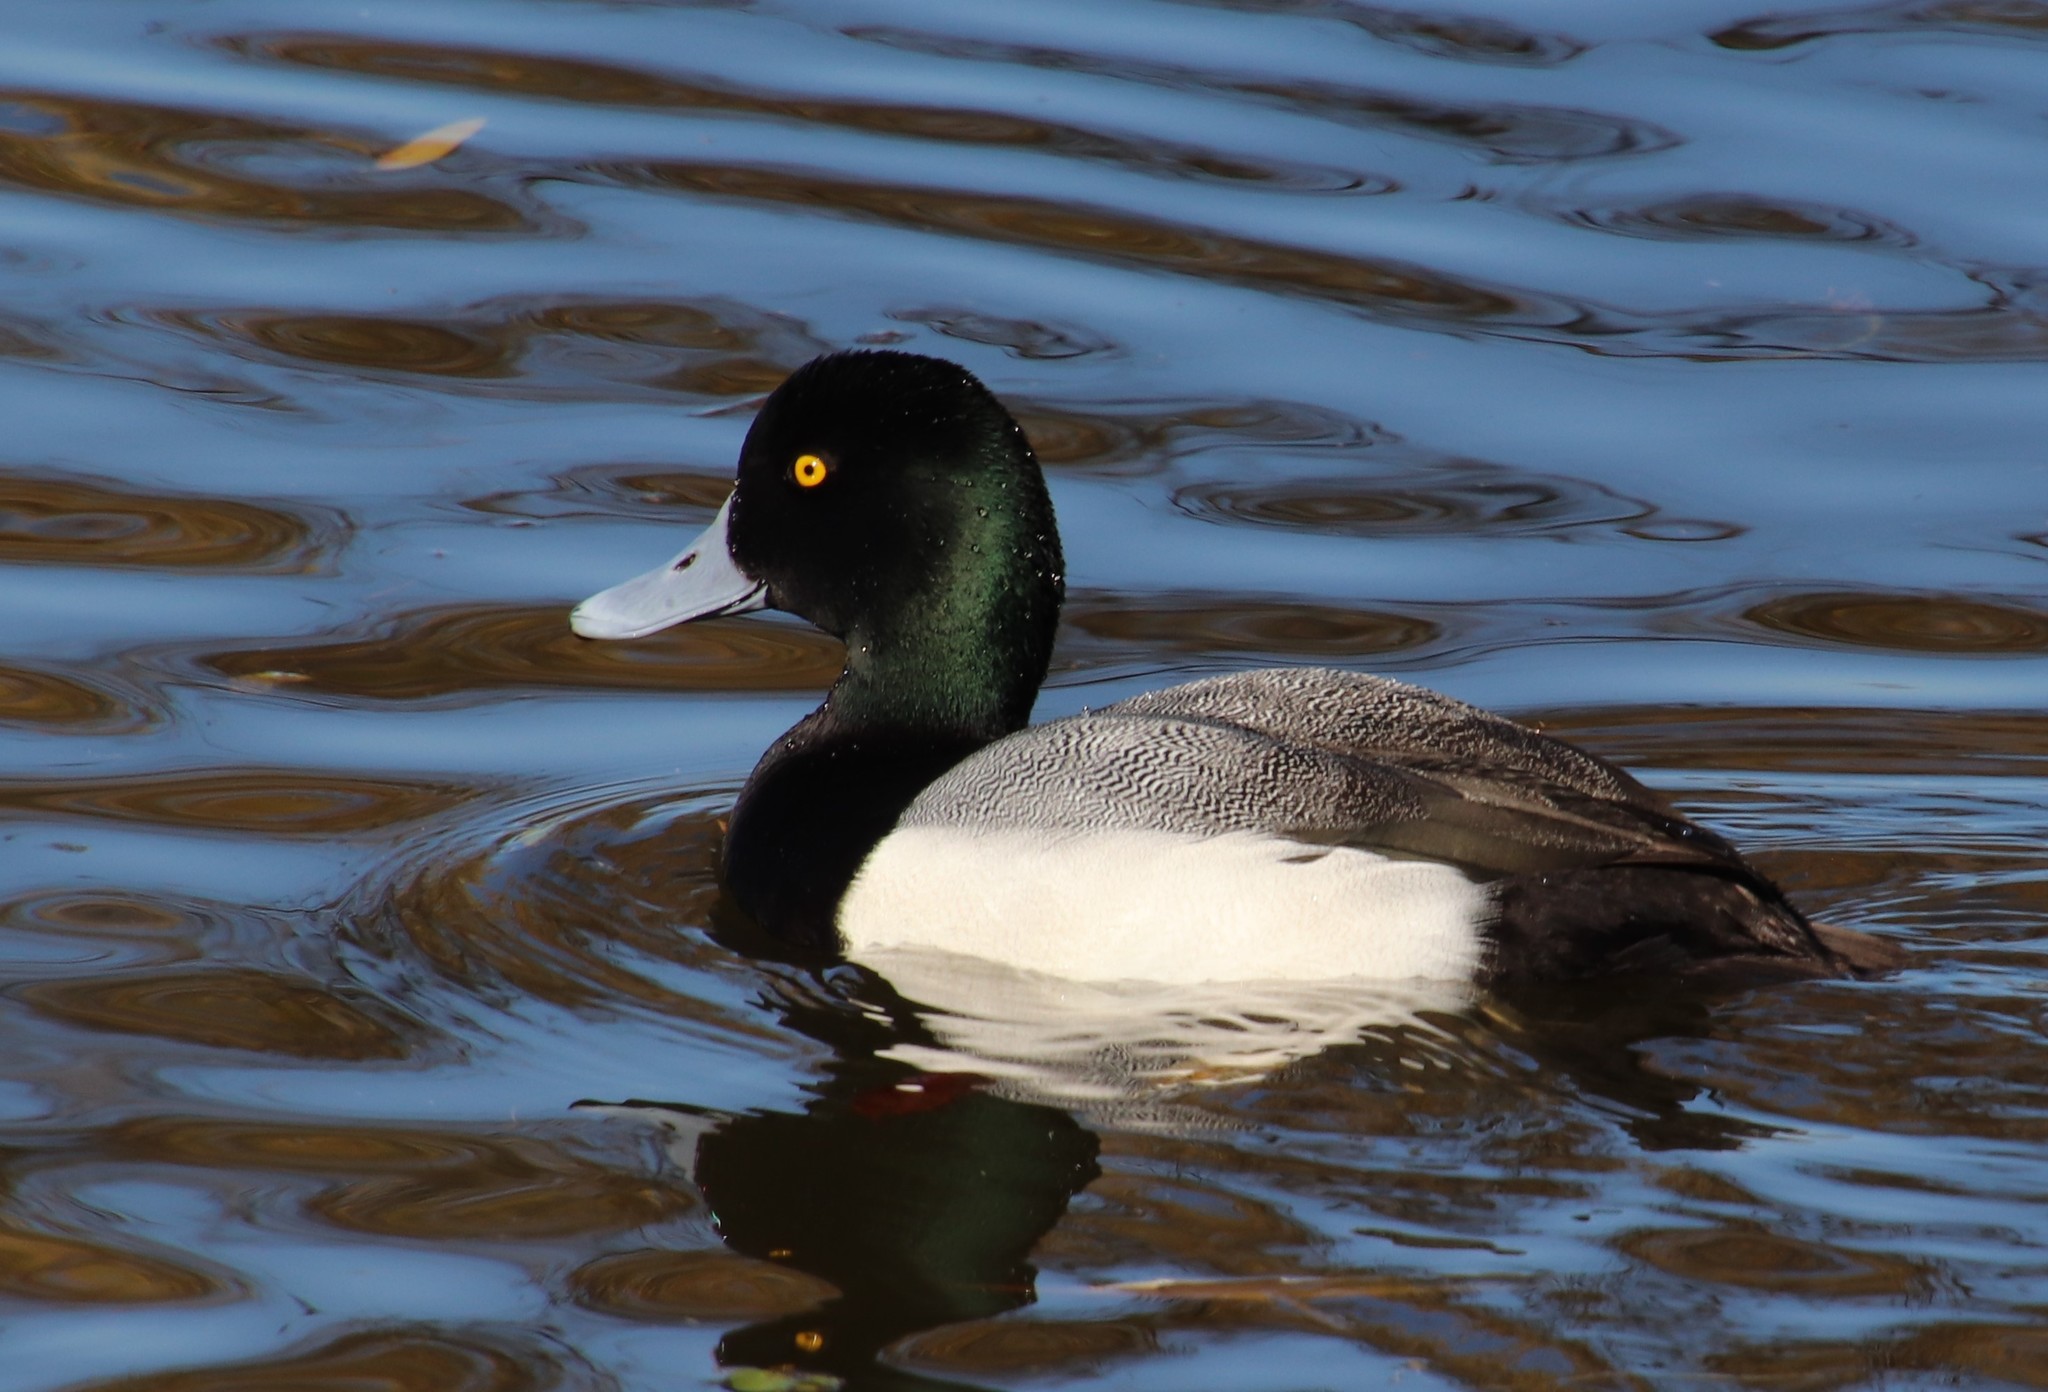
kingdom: Animalia
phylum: Chordata
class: Aves
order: Anseriformes
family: Anatidae
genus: Aythya
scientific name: Aythya marila
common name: Greater scaup
